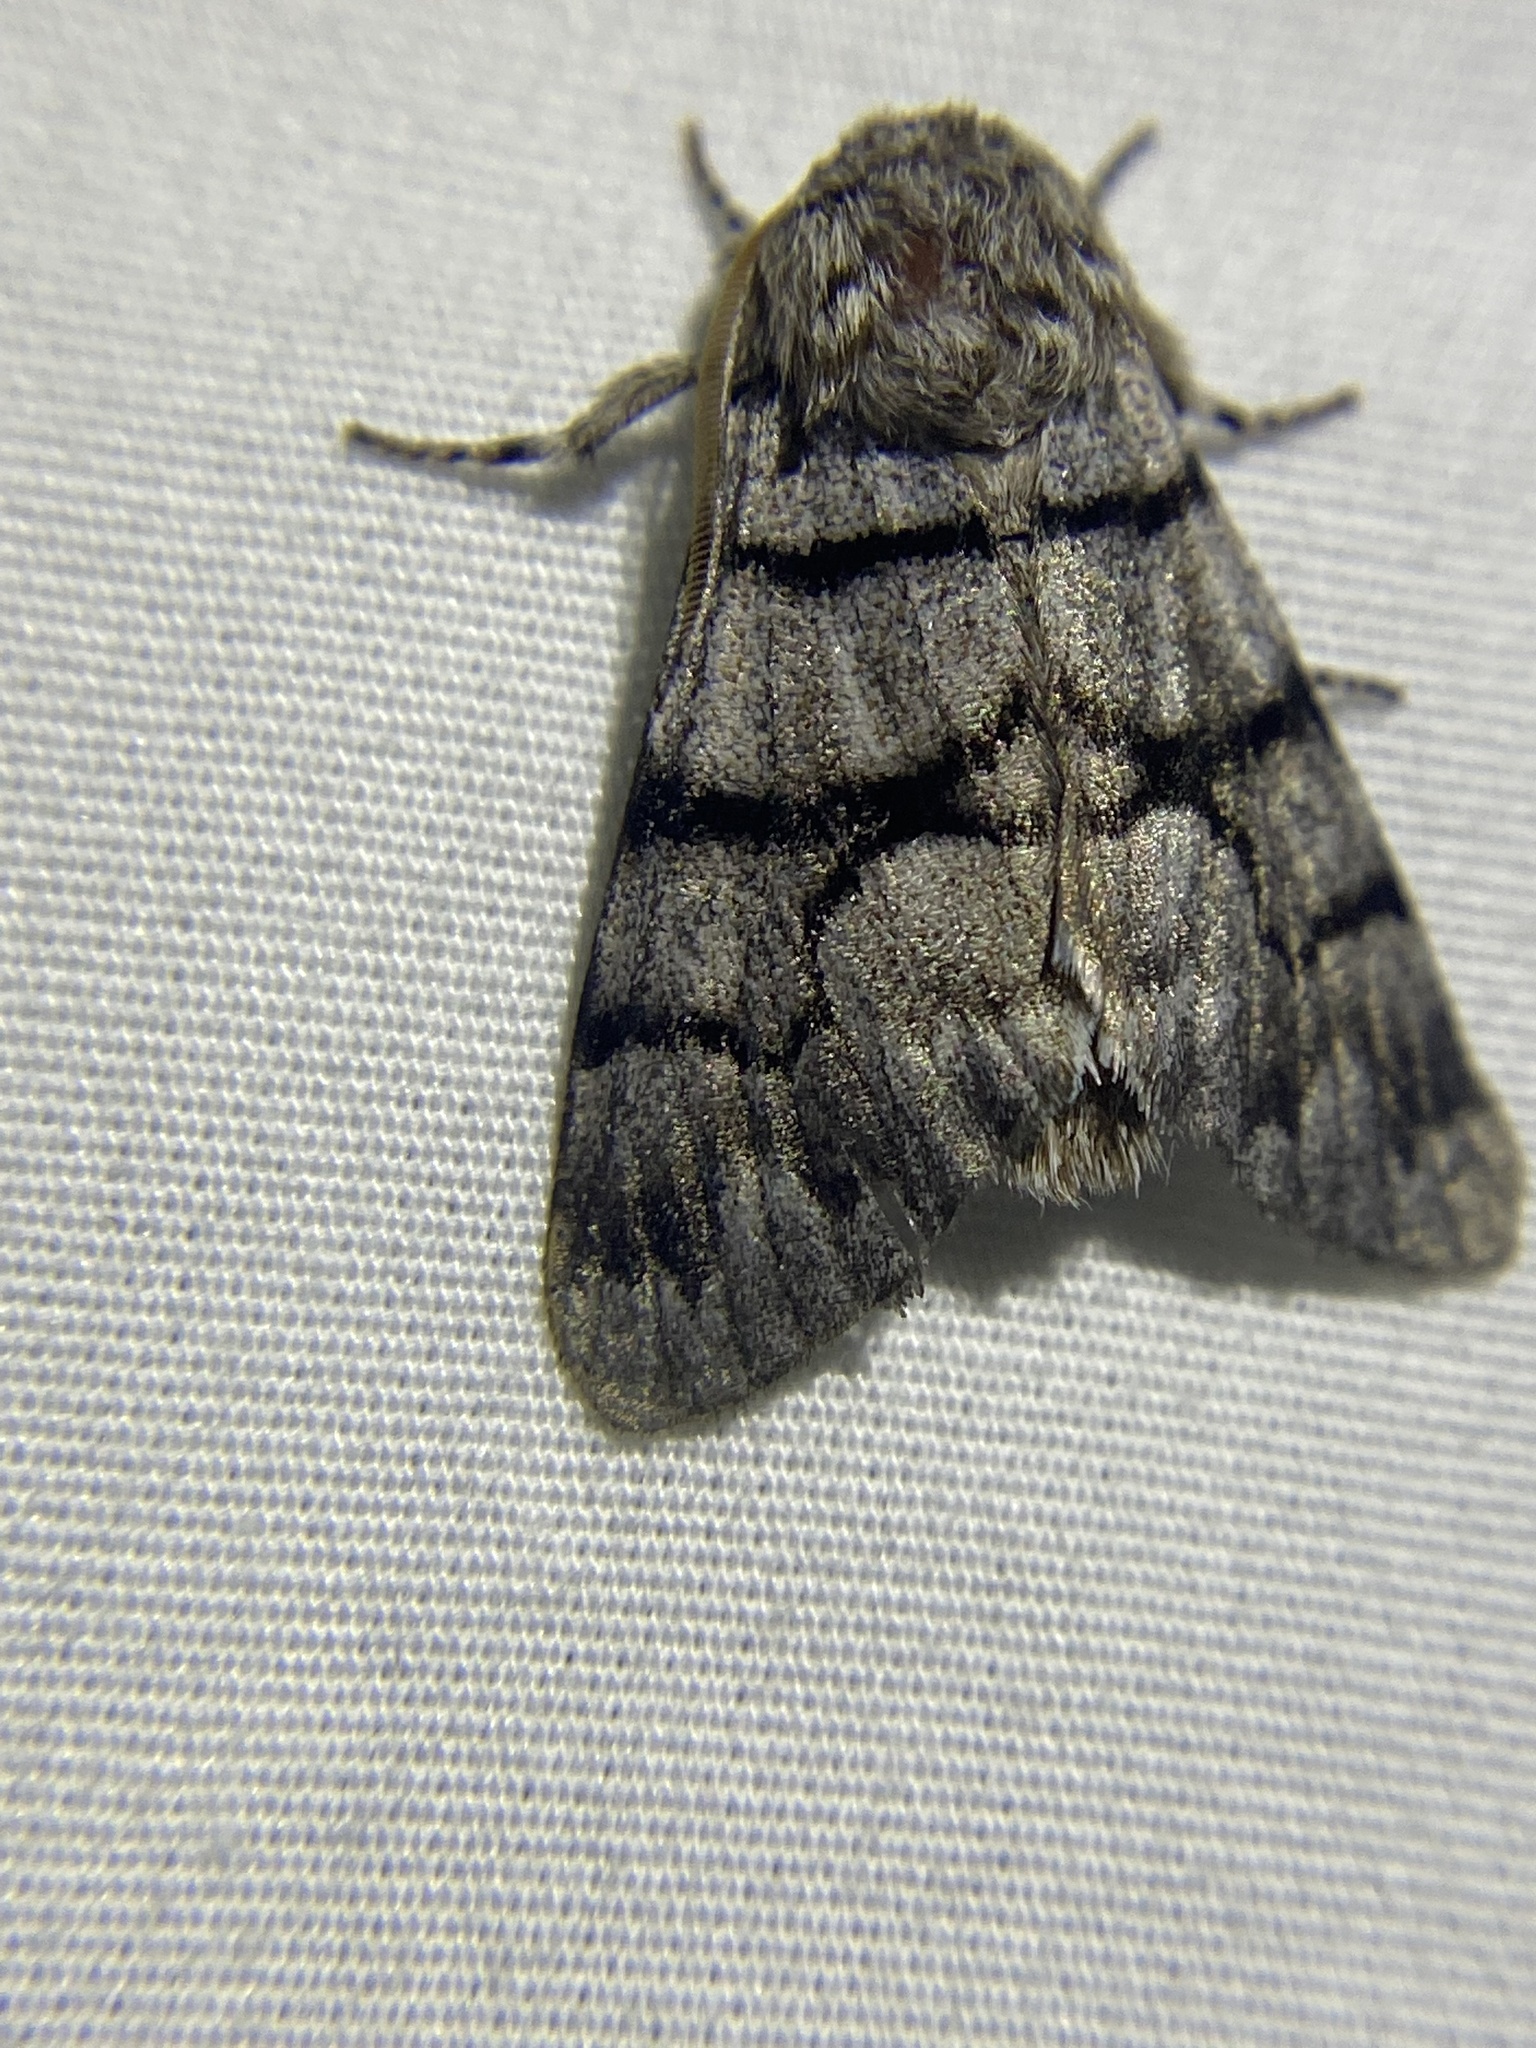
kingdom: Animalia
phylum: Arthropoda
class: Insecta
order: Lepidoptera
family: Noctuidae
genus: Panthea
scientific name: Panthea furcilla
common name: Eastern panthea moth
